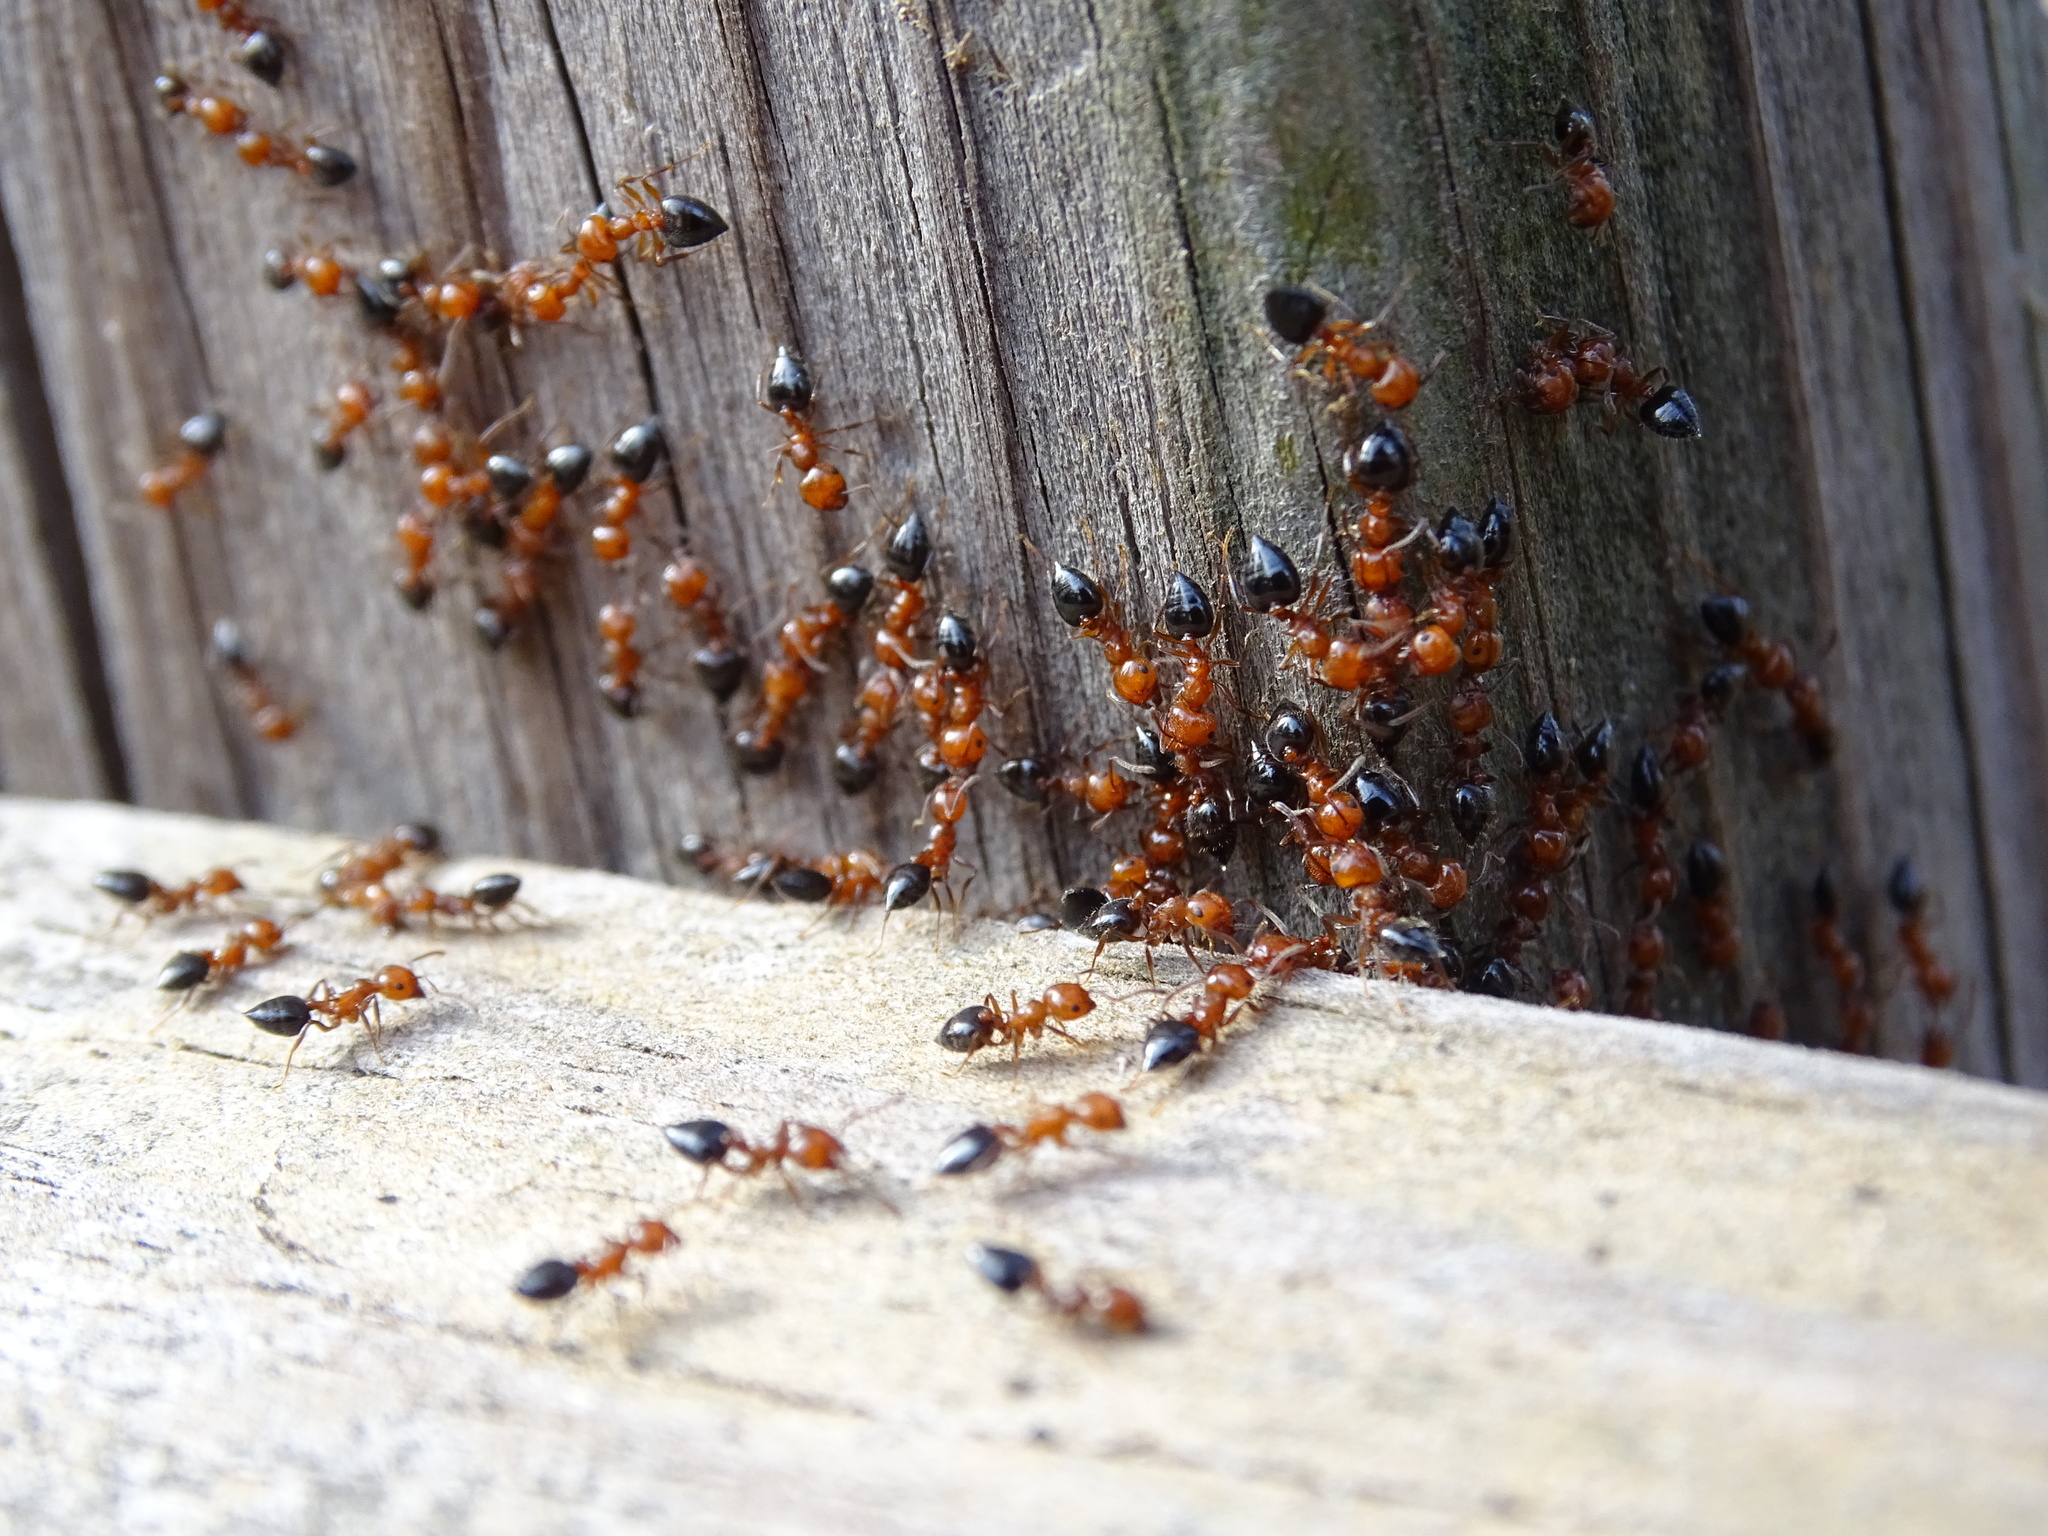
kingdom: Animalia
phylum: Arthropoda
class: Insecta
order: Hymenoptera
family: Formicidae
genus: Crematogaster
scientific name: Crematogaster laeviuscula
